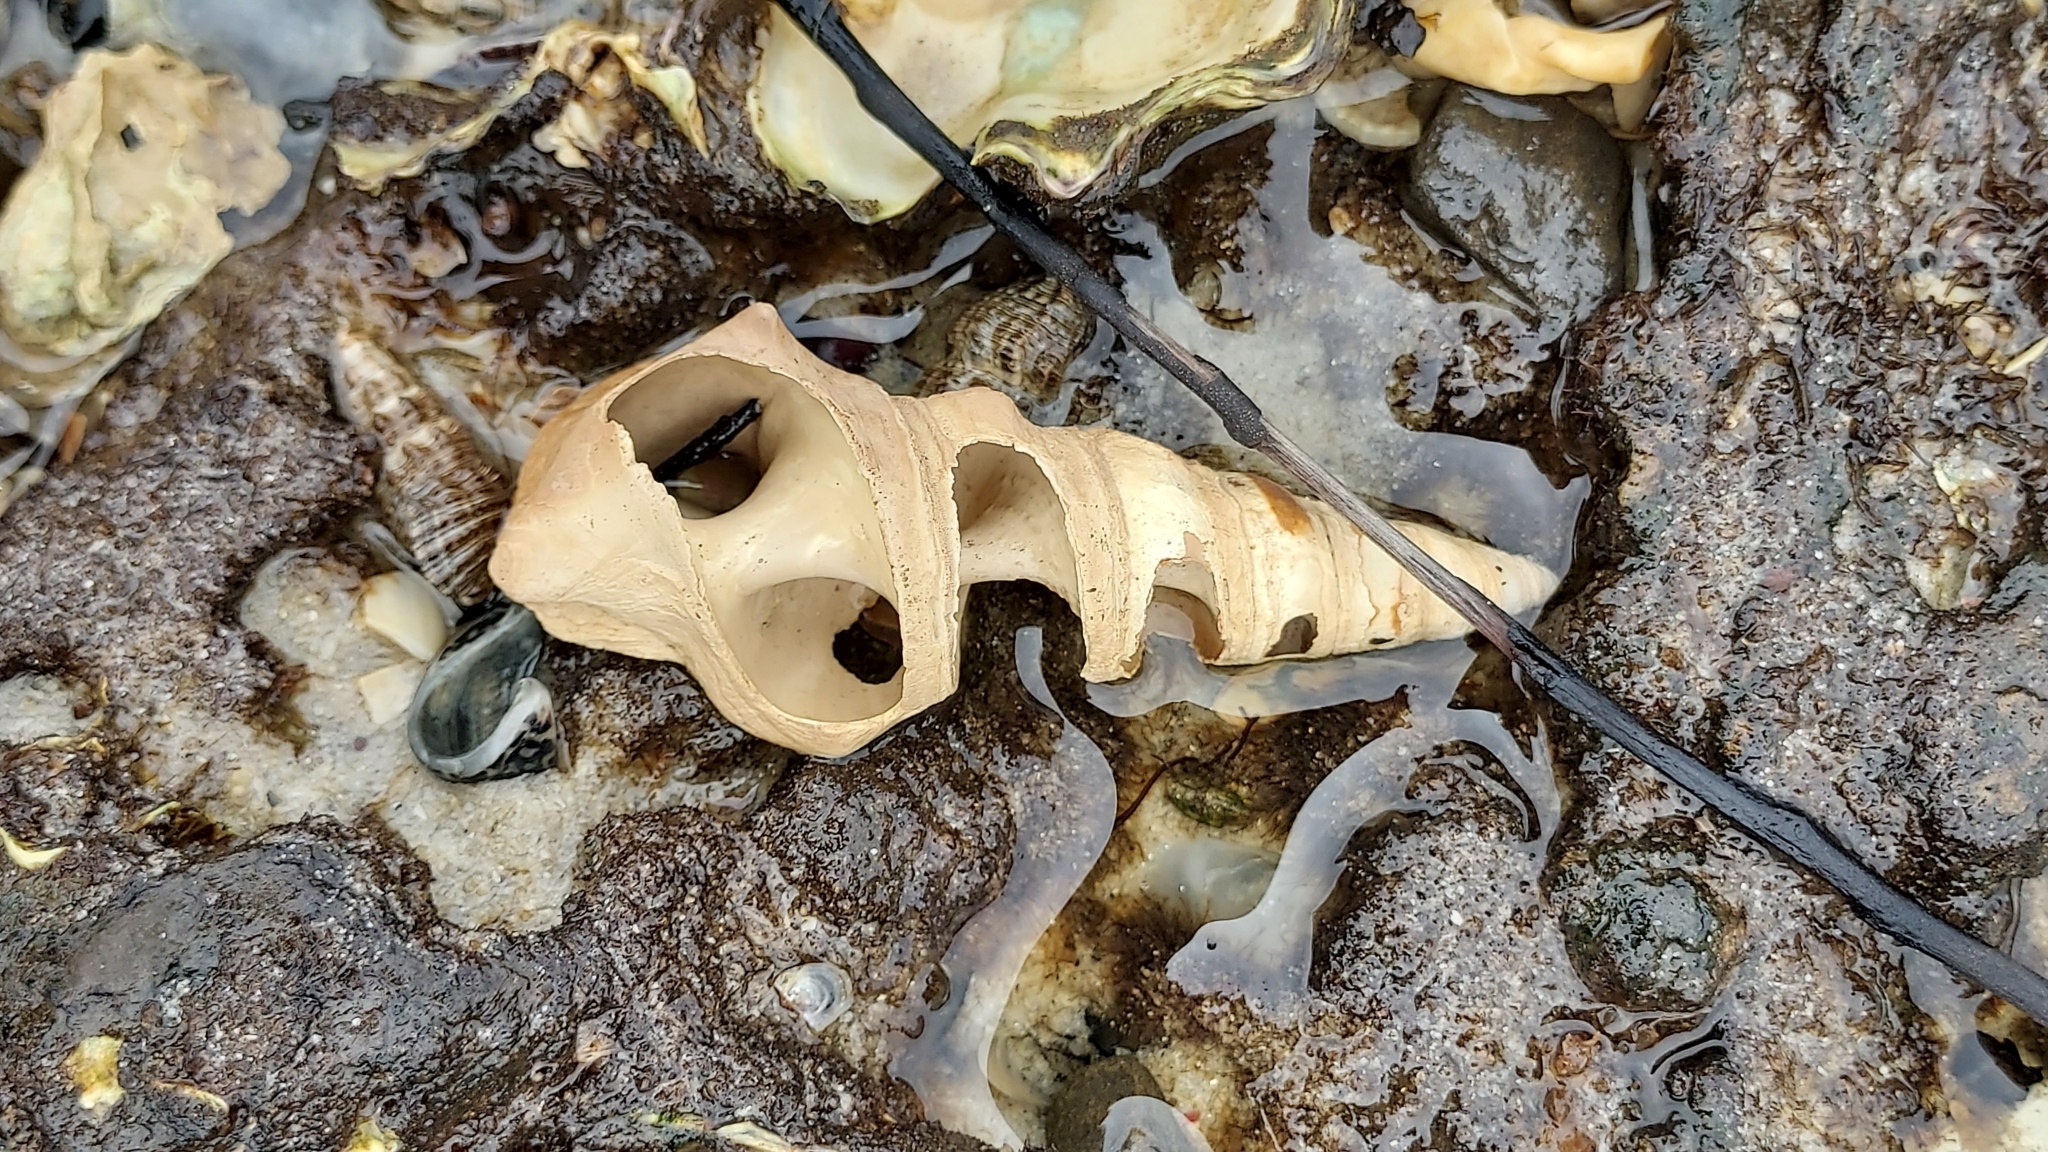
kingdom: Animalia
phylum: Mollusca
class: Gastropoda
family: Batillariidae
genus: Pyrazus
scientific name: Pyrazus ebeninus
